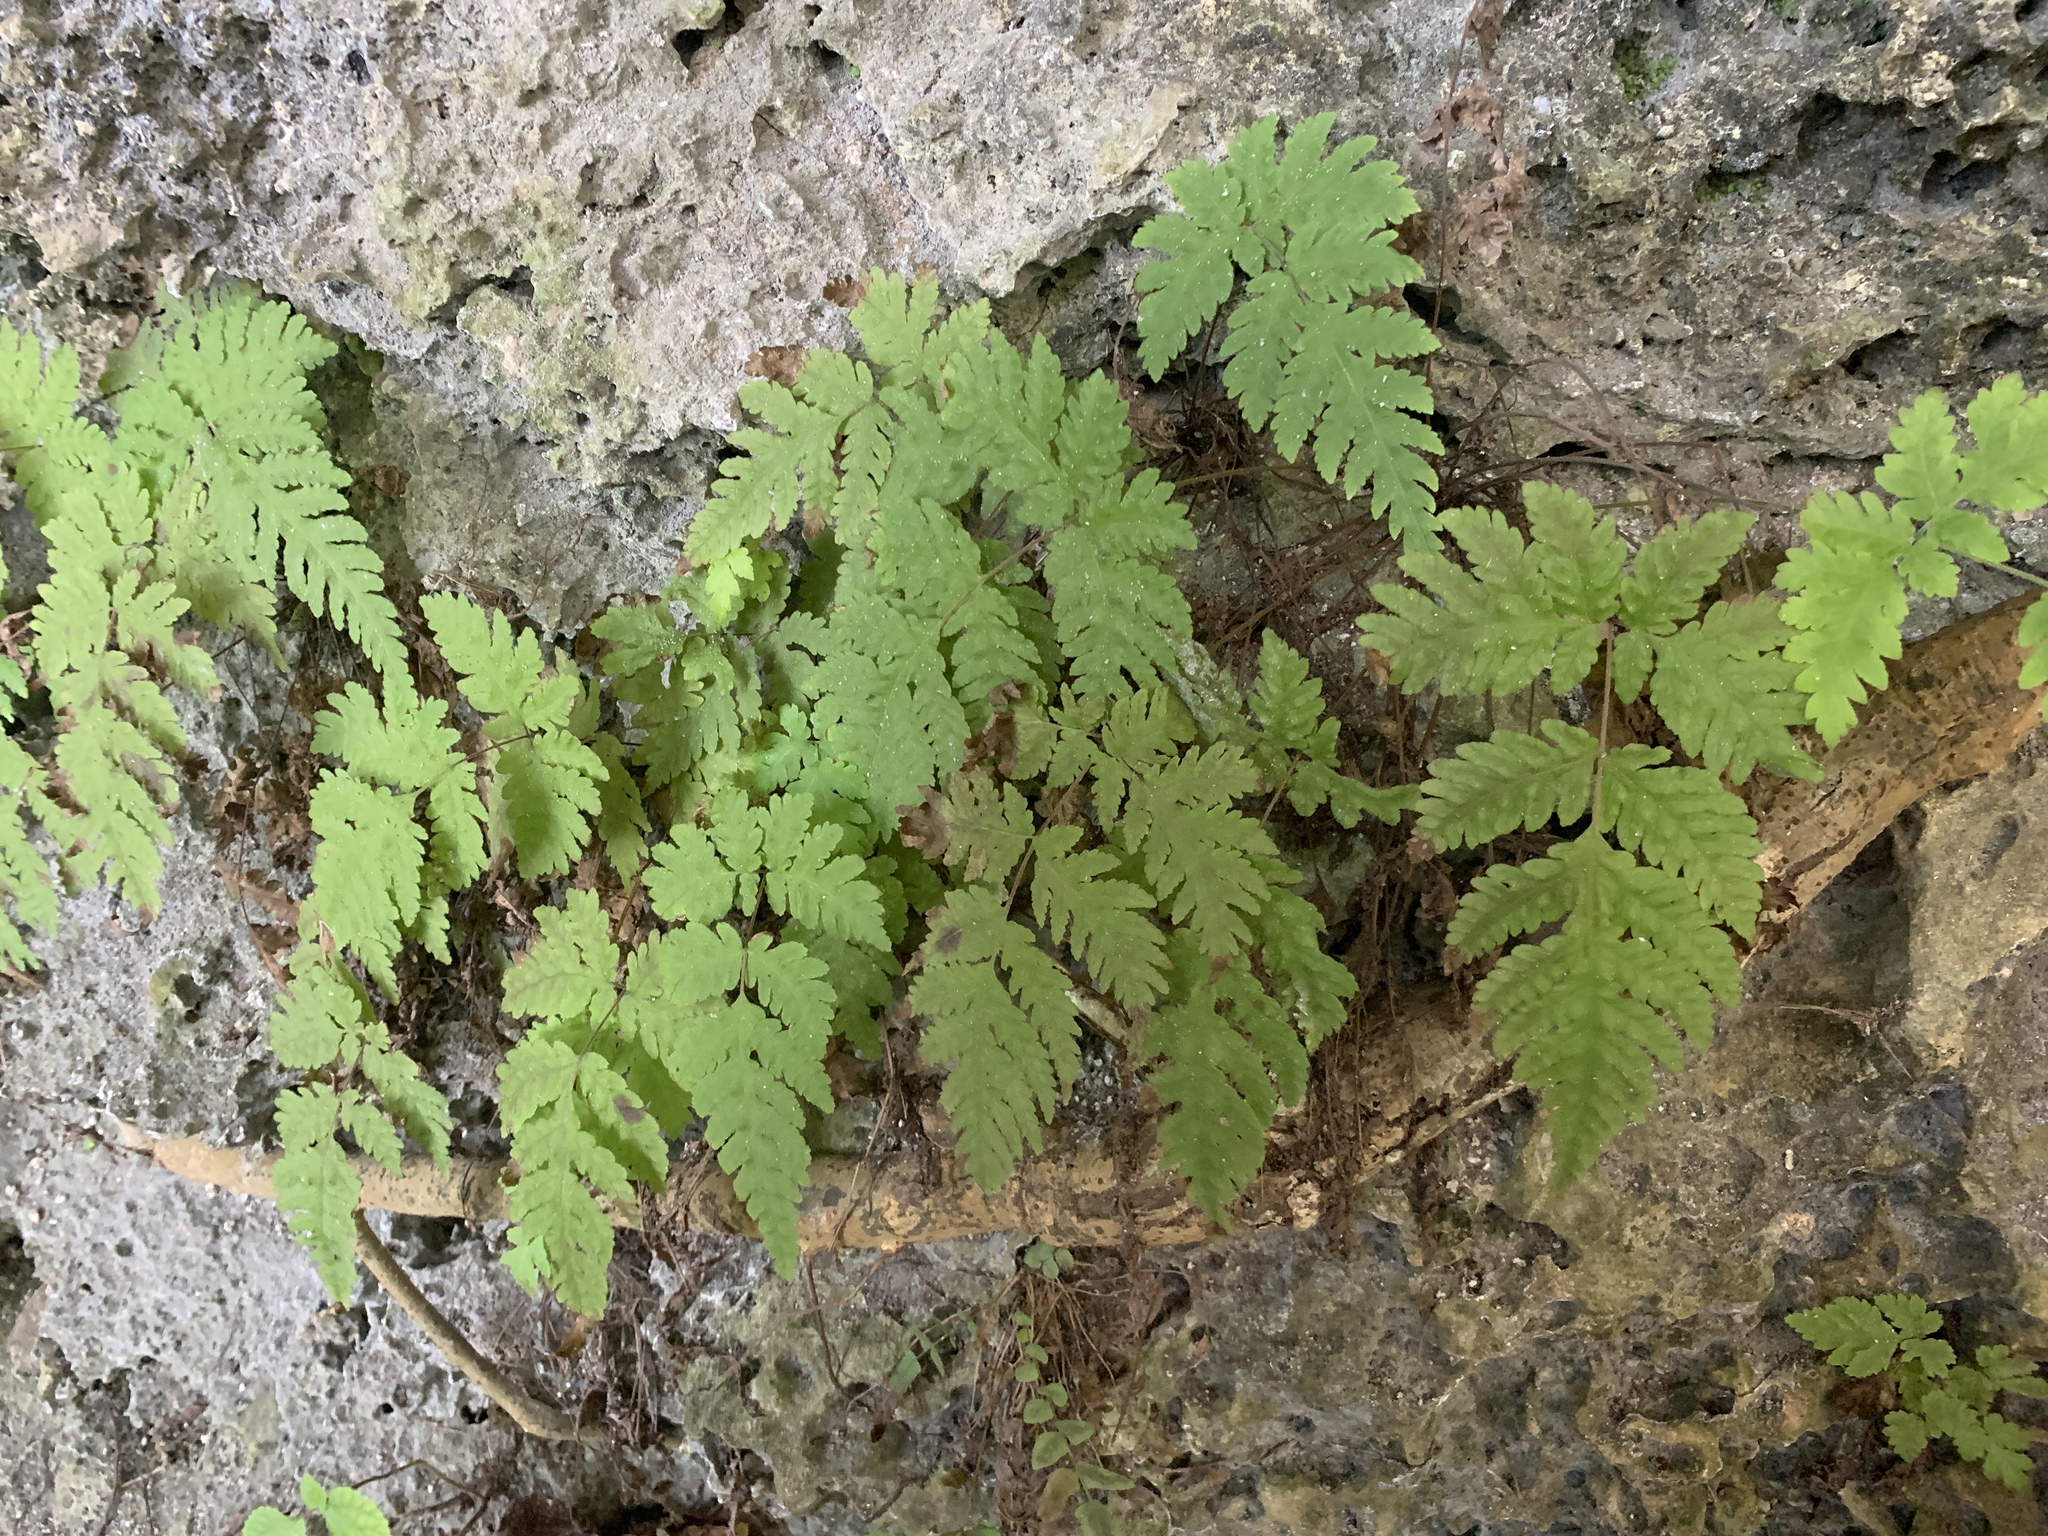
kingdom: Plantae
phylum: Tracheophyta
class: Polypodiopsida
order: Polypodiales
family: Tectariaceae
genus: Tectaria
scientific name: Tectaria membranacea
